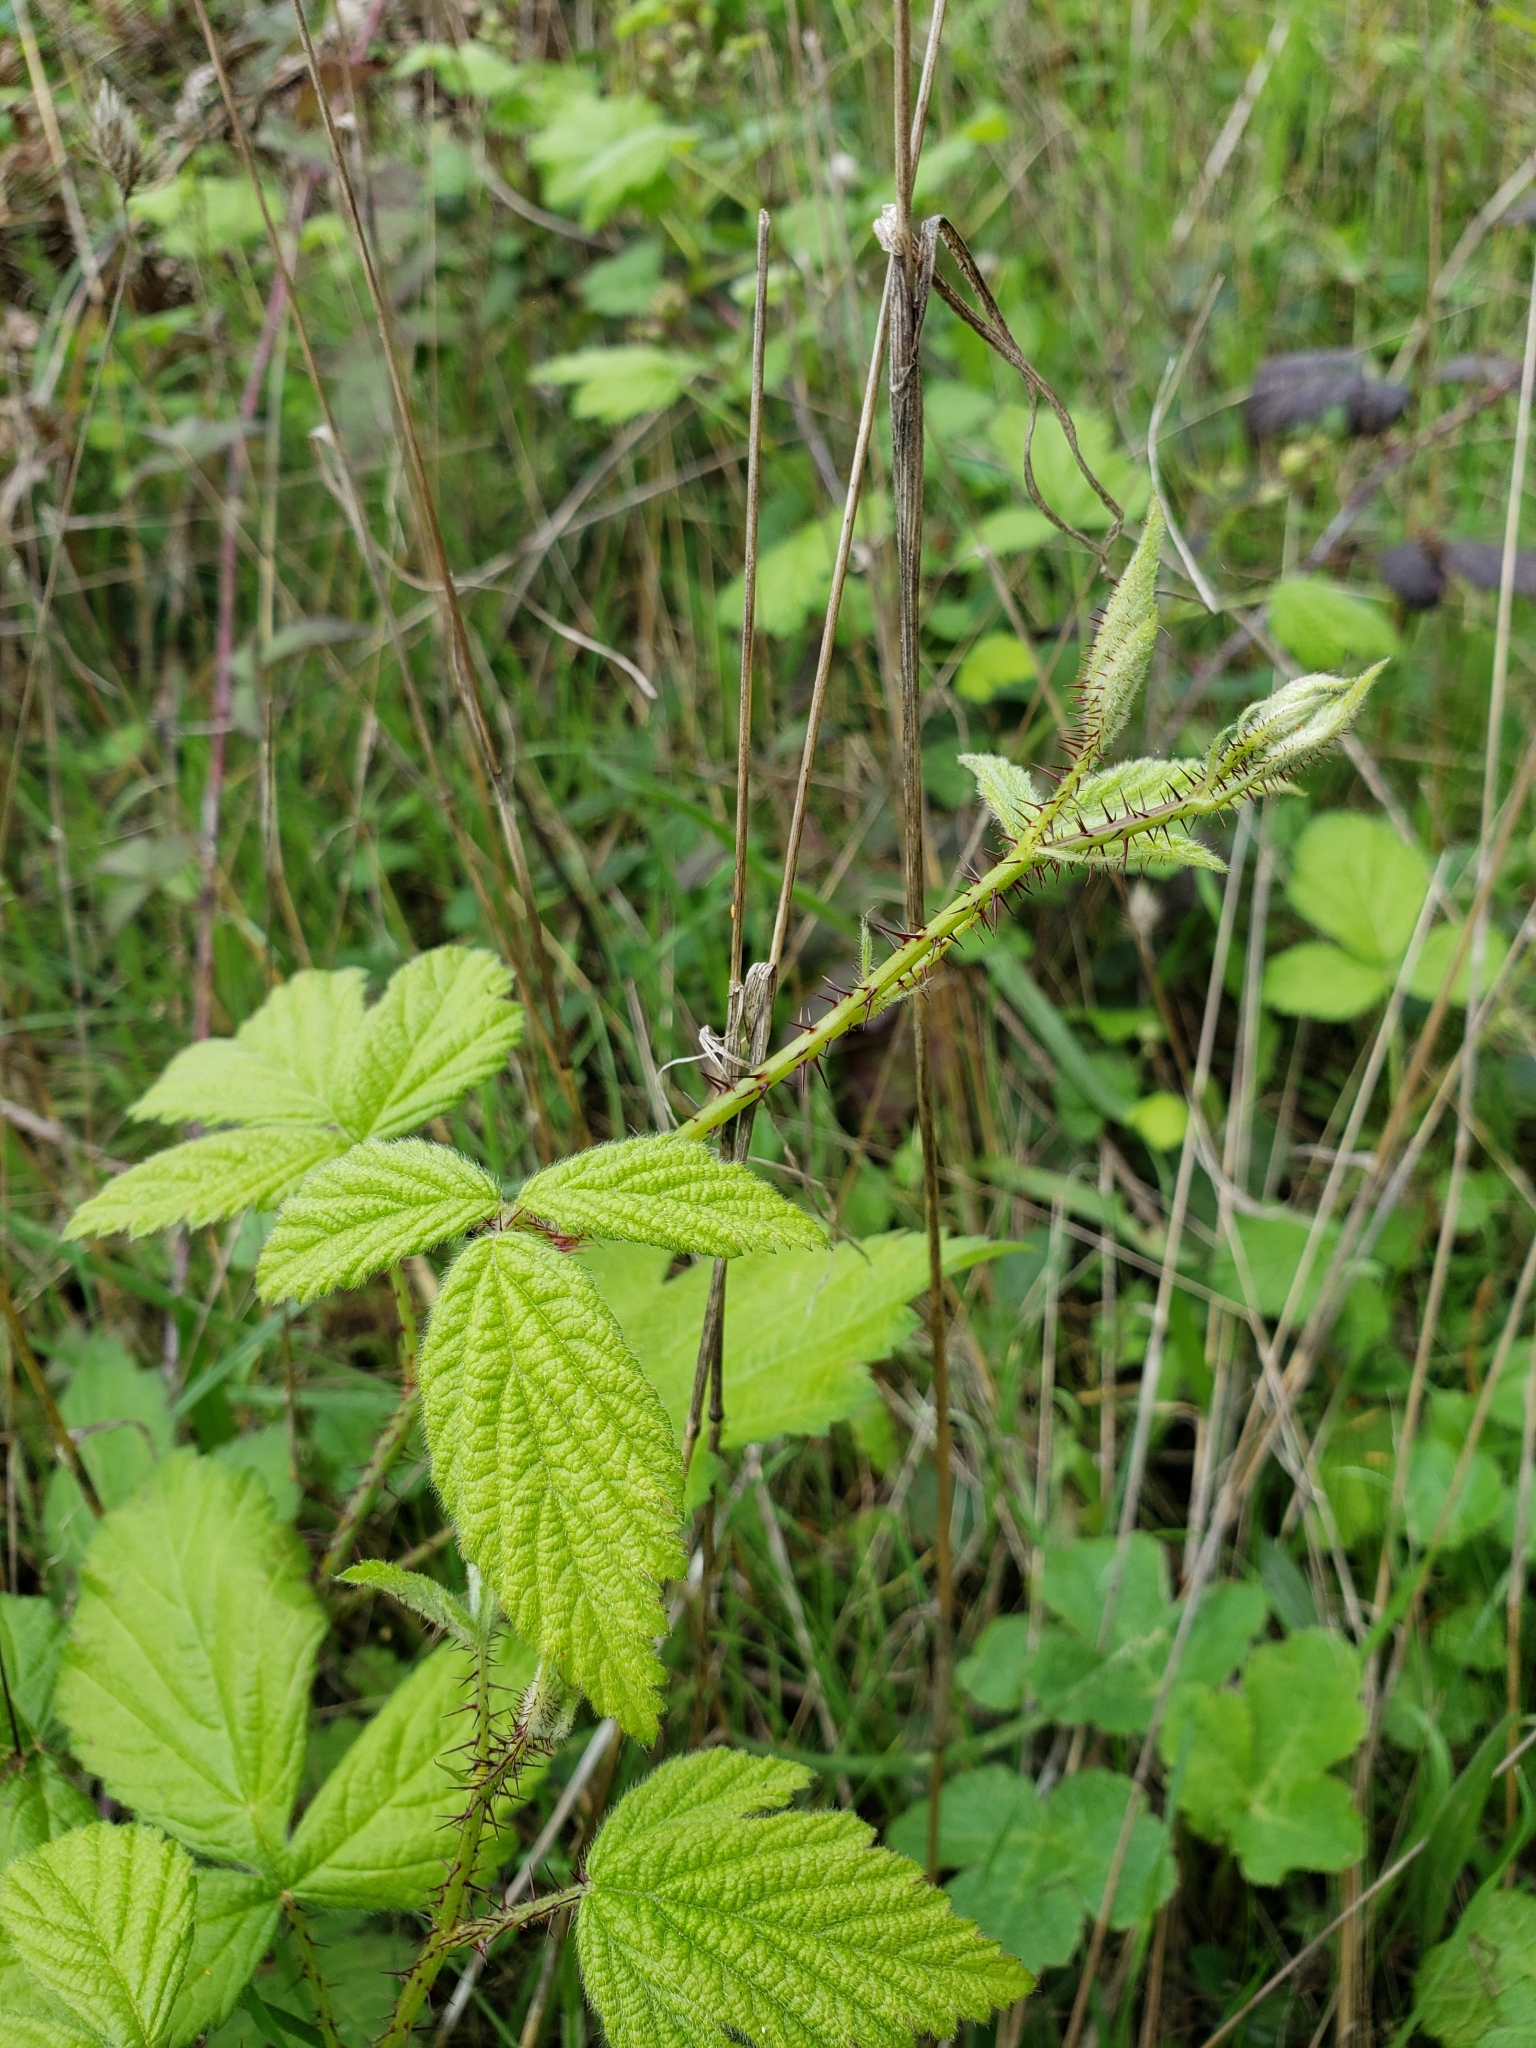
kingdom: Plantae
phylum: Tracheophyta
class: Magnoliopsida
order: Rosales
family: Rosaceae
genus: Rubus
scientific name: Rubus ursinus
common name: Pacific blackberry
